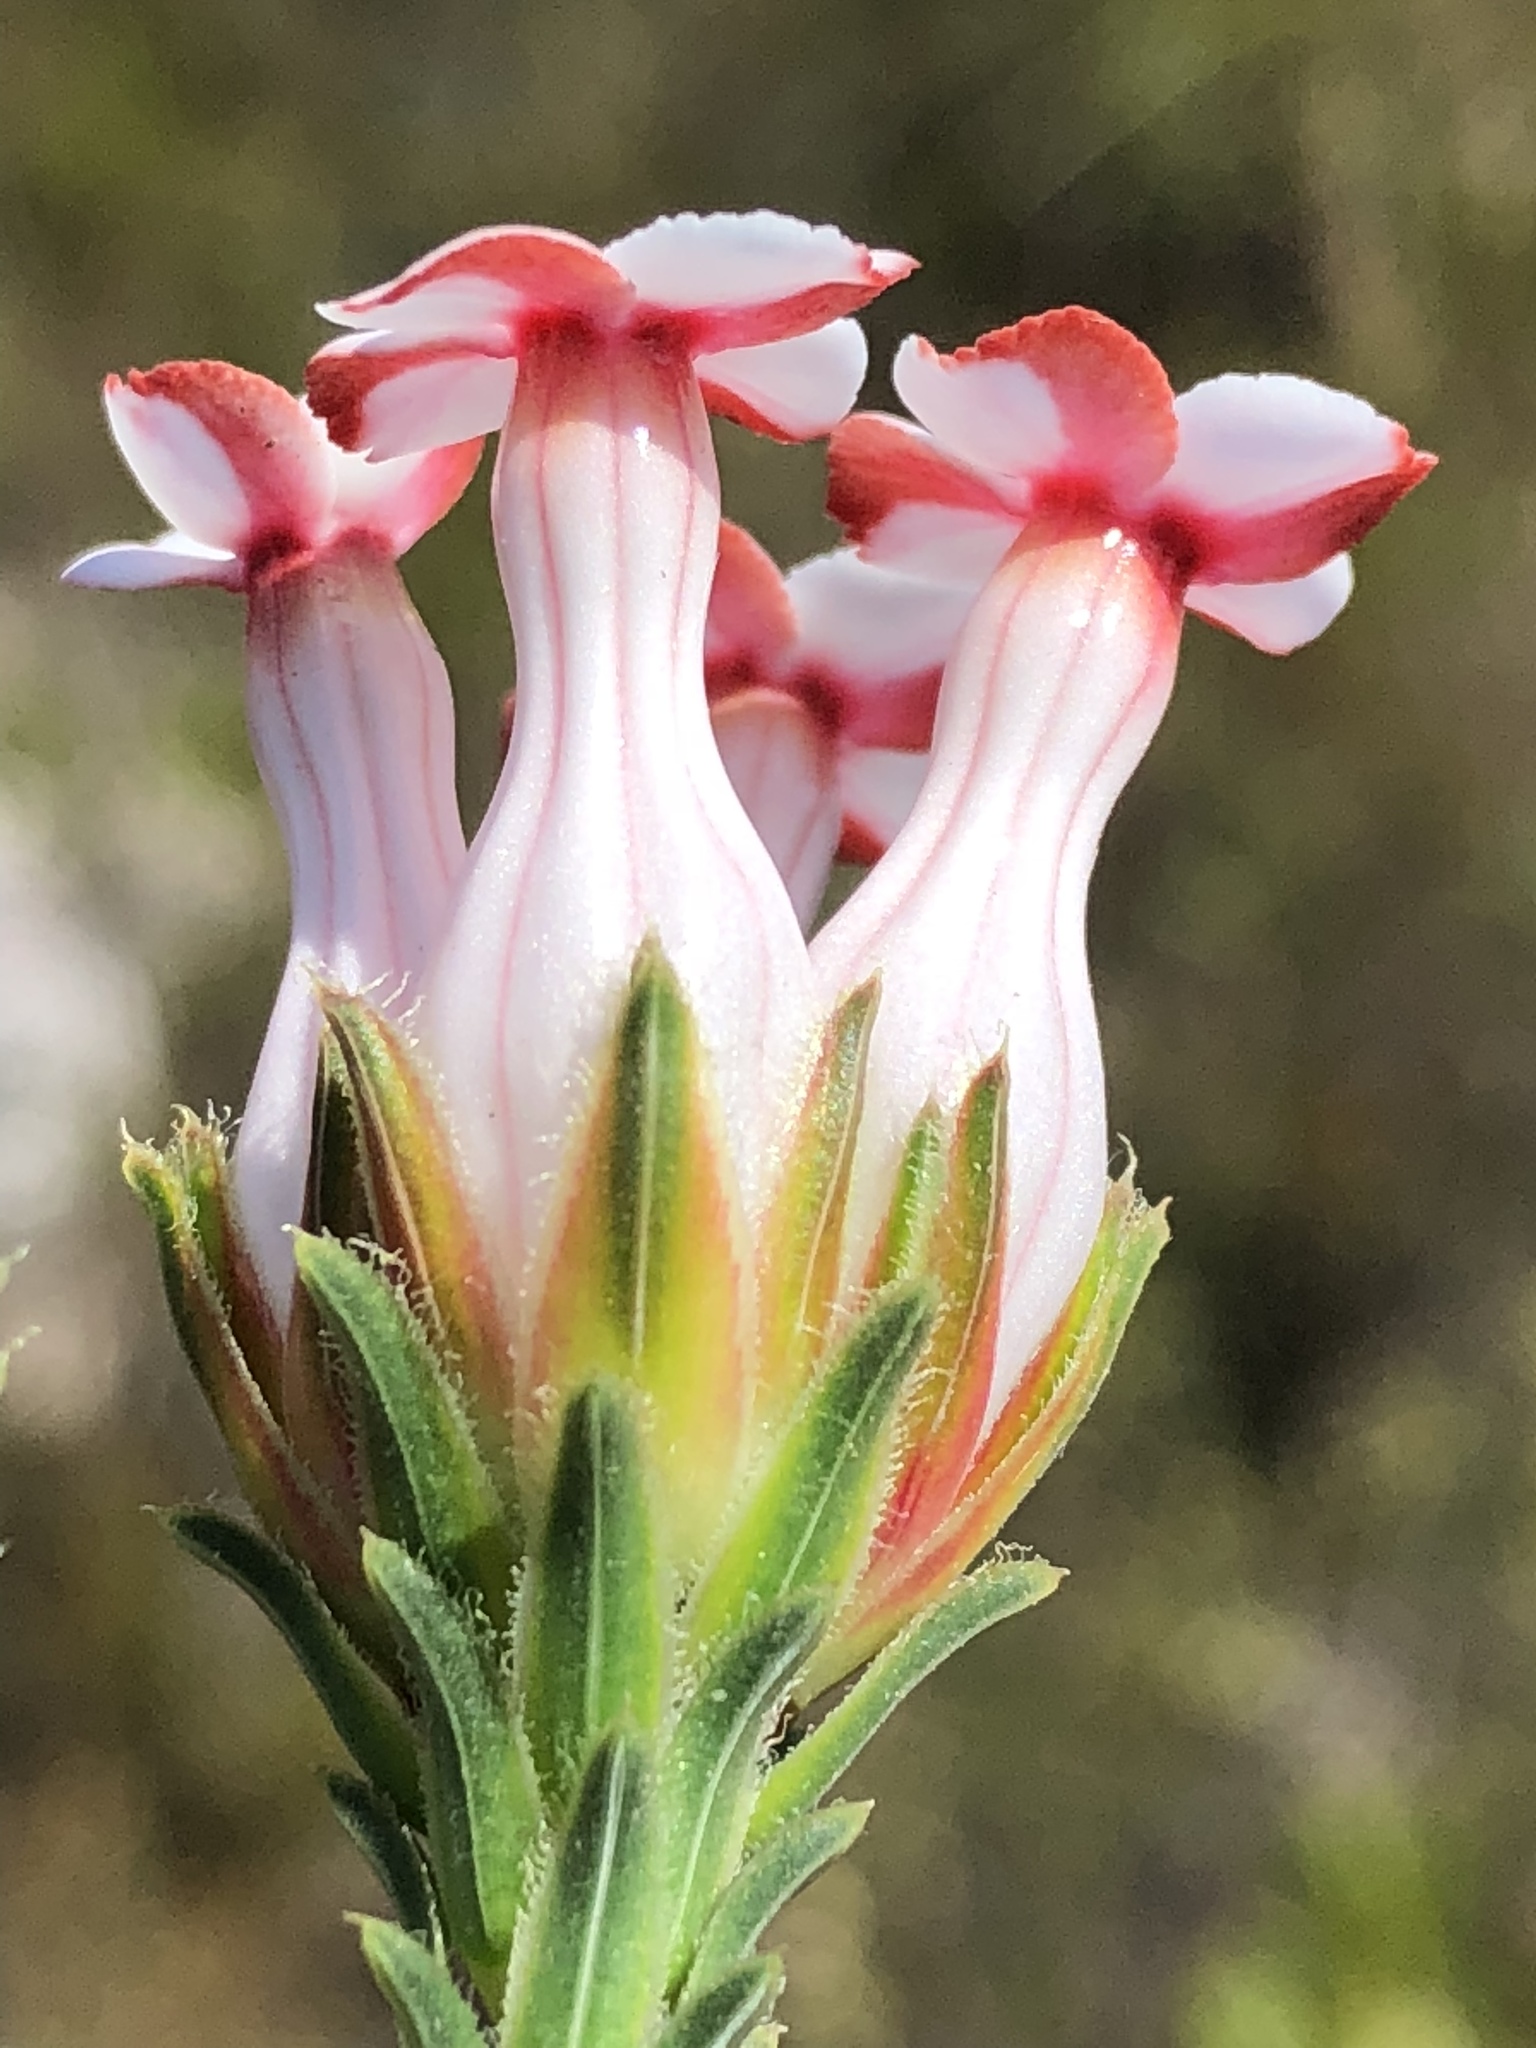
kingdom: Plantae
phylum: Tracheophyta
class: Magnoliopsida
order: Ericales
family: Ericaceae
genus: Erica
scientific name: Erica ampullacea
